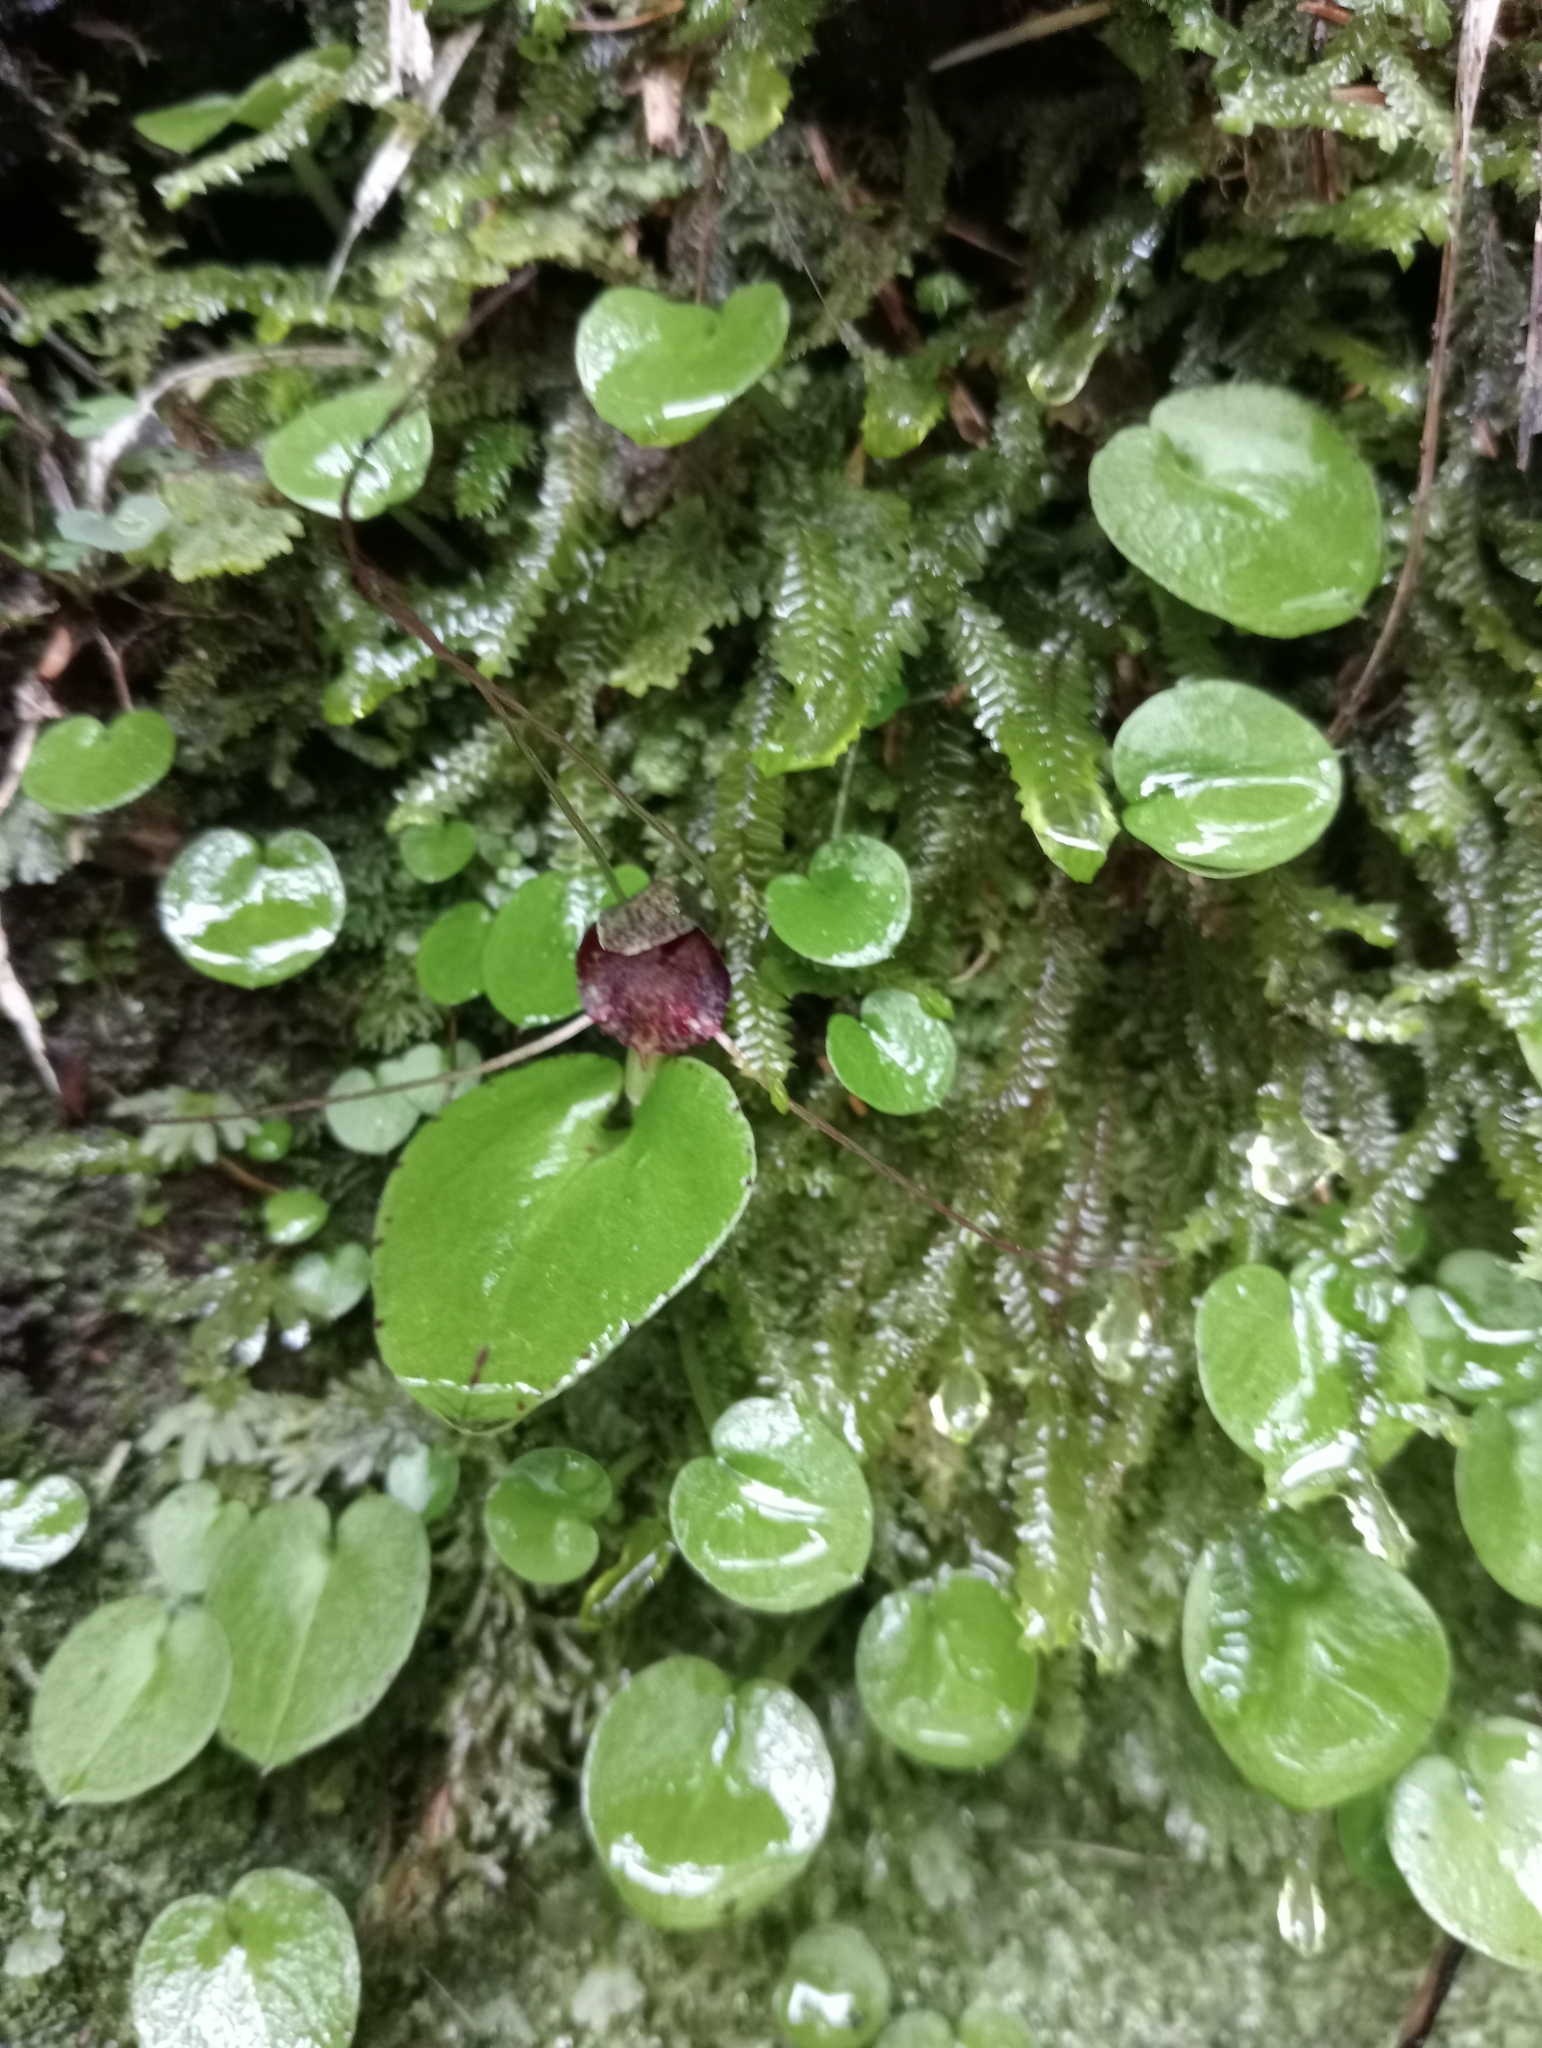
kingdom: Plantae
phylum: Tracheophyta
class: Liliopsida
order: Asparagales
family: Orchidaceae
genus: Corybas
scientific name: Corybas iridescens
